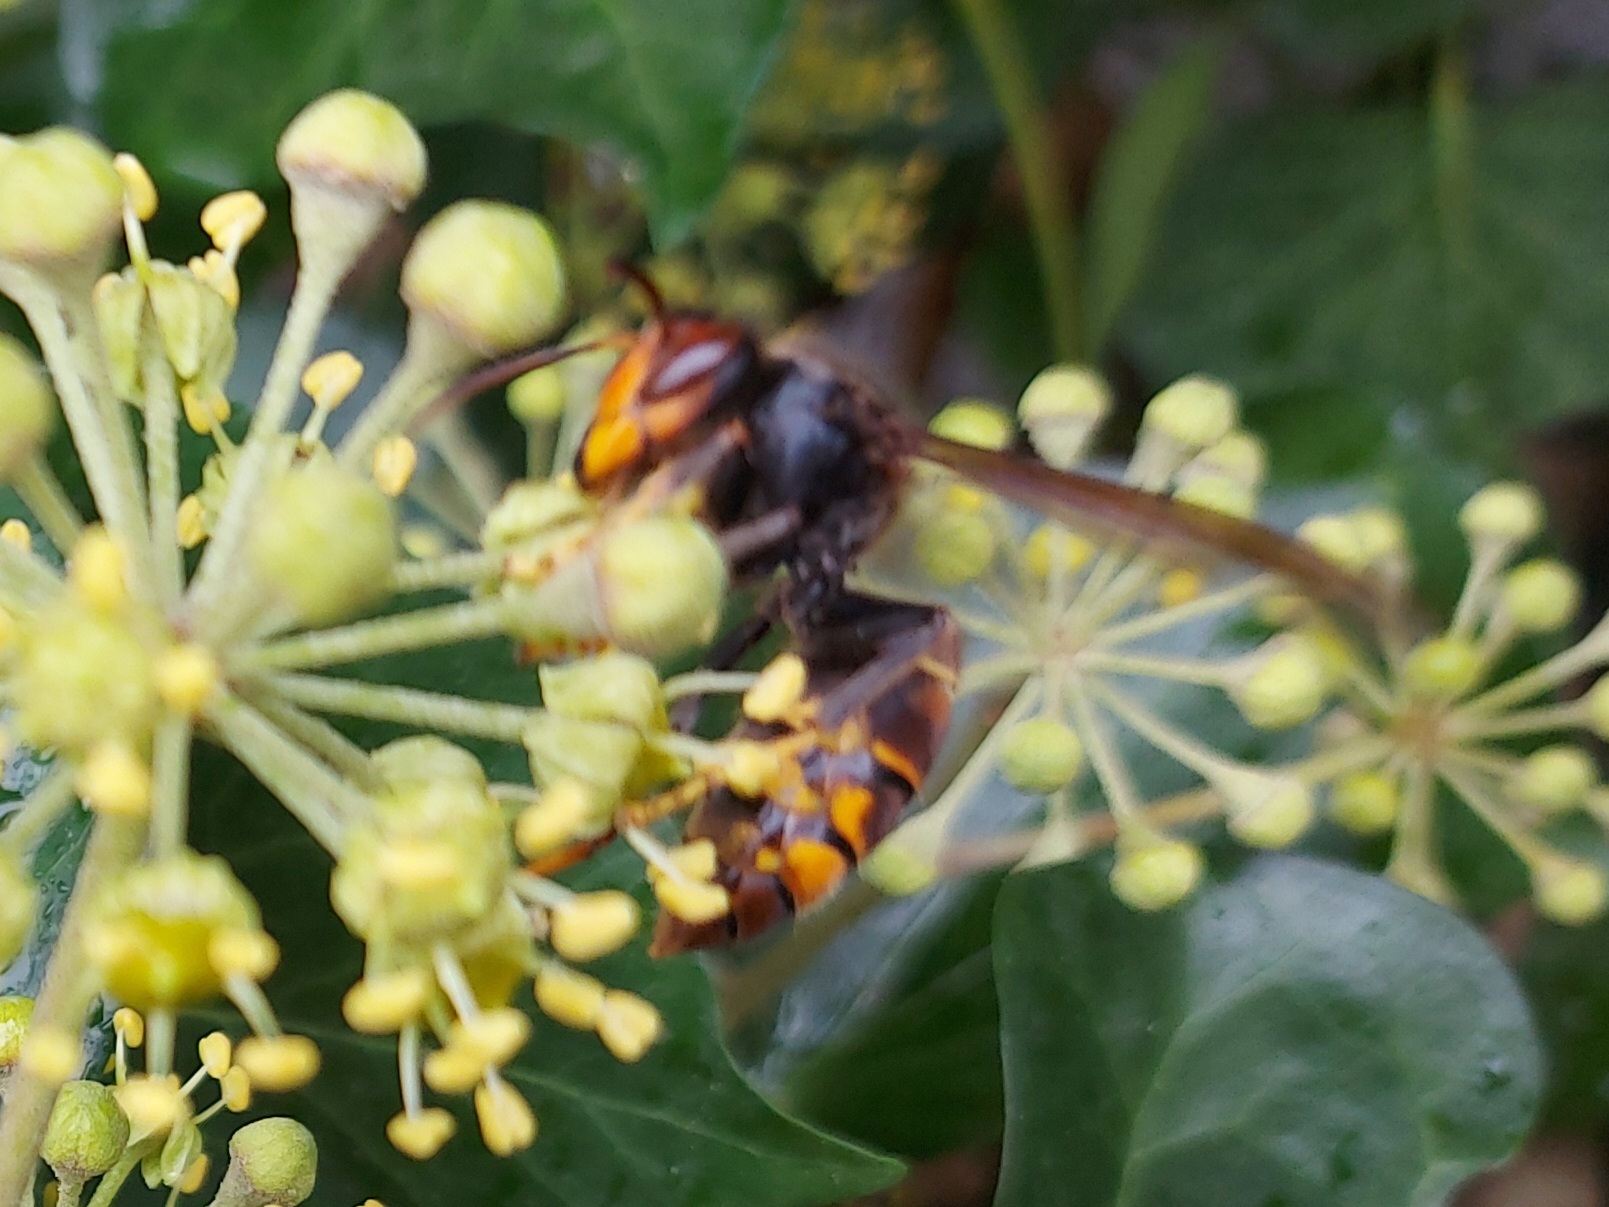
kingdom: Animalia
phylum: Arthropoda
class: Insecta
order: Hymenoptera
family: Vespidae
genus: Vespa
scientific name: Vespa velutina
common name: Asian hornet
